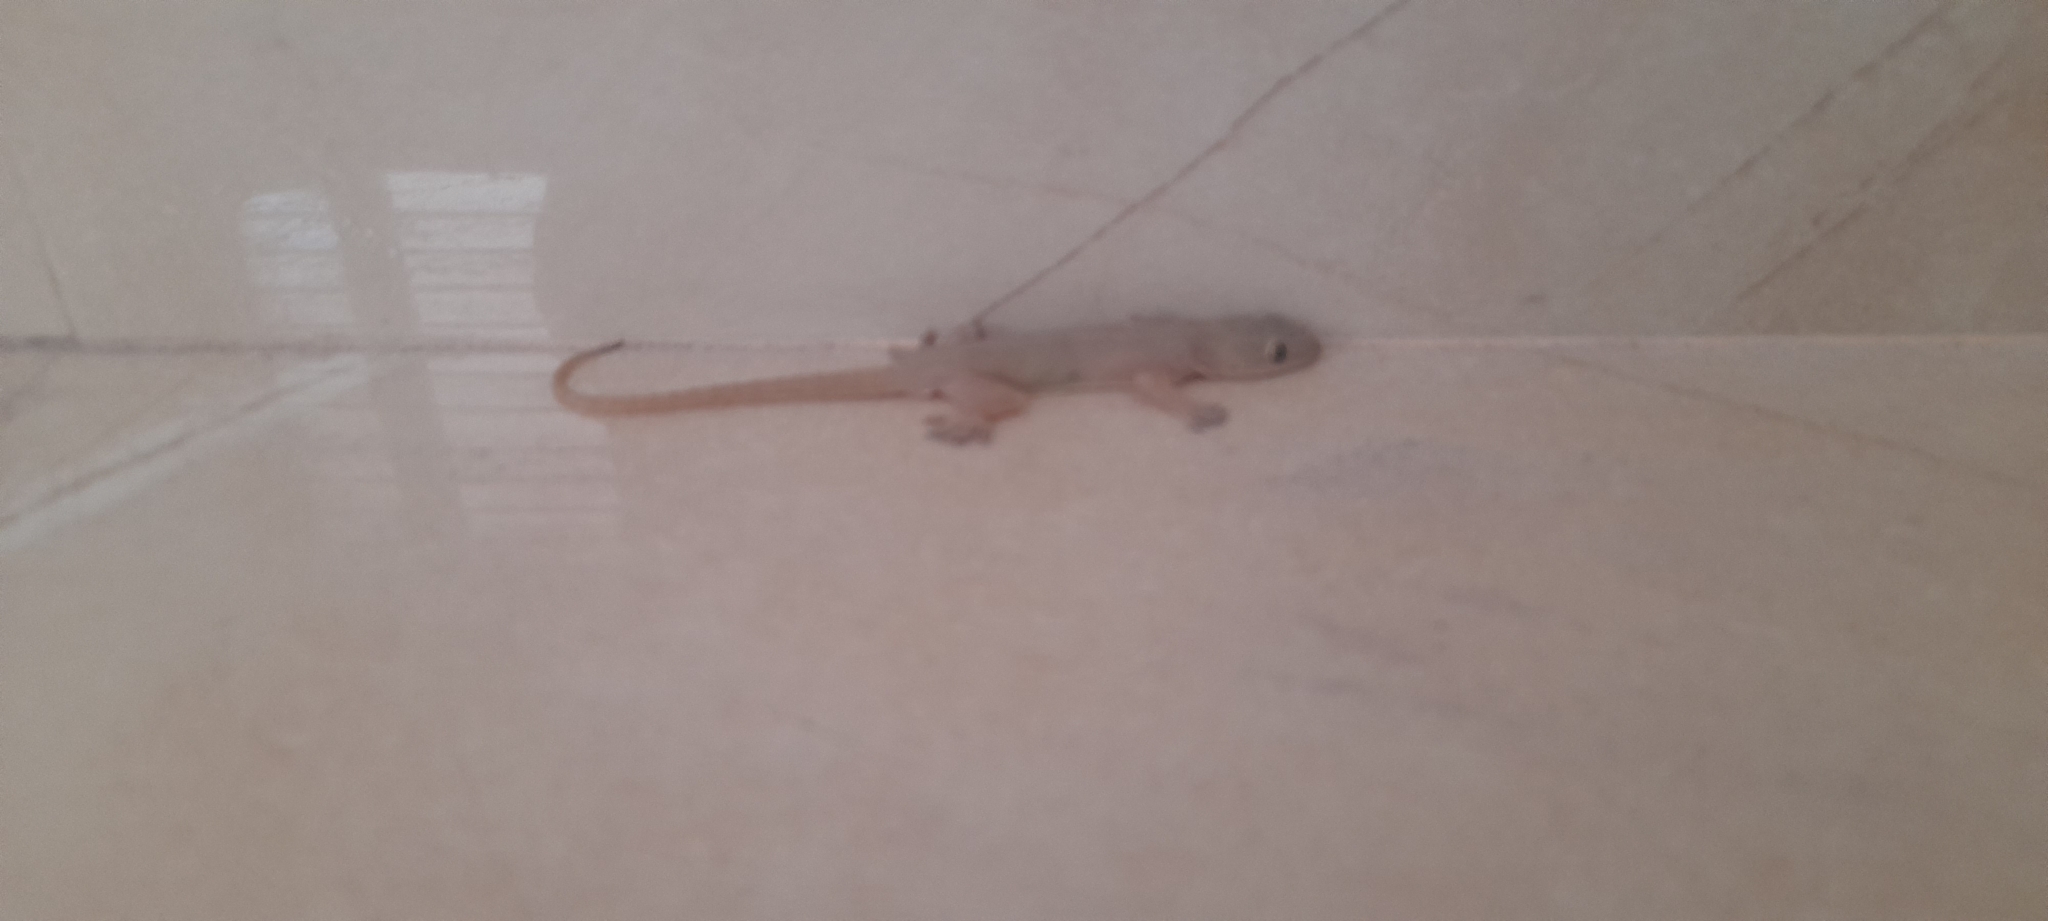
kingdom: Animalia
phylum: Chordata
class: Squamata
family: Gekkonidae
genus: Hemidactylus
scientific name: Hemidactylus frenatus
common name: Common house gecko
